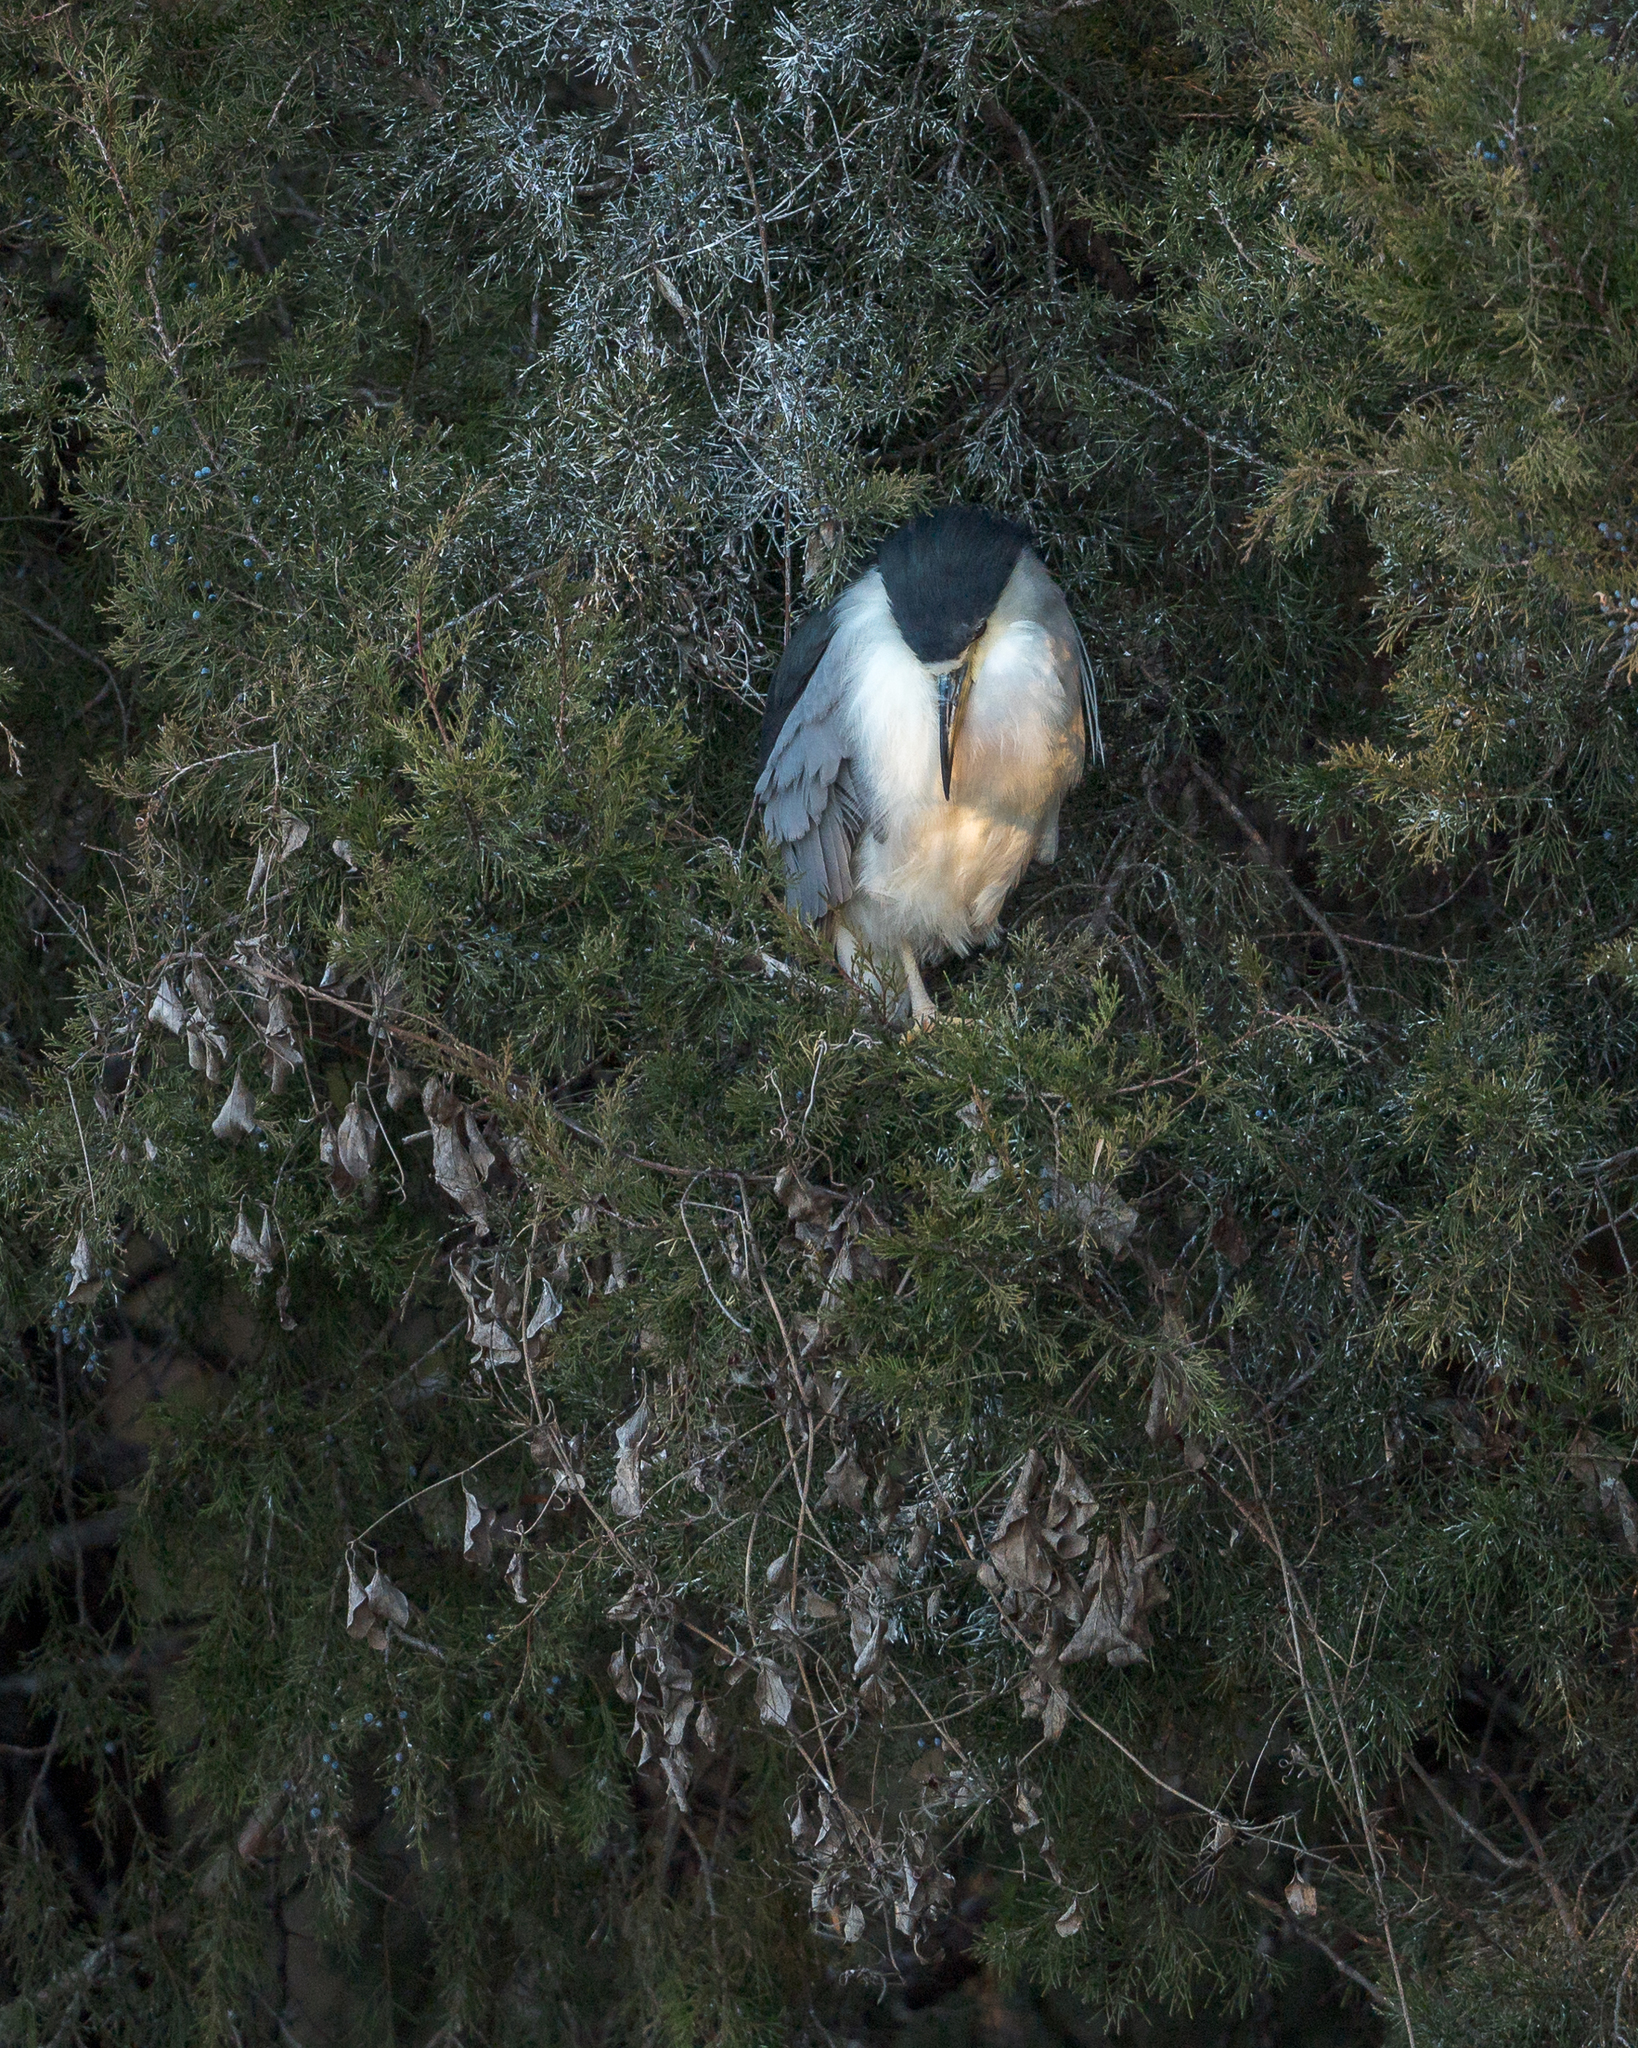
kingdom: Animalia
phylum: Chordata
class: Aves
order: Pelecaniformes
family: Ardeidae
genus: Nycticorax
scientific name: Nycticorax nycticorax
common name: Black-crowned night heron
